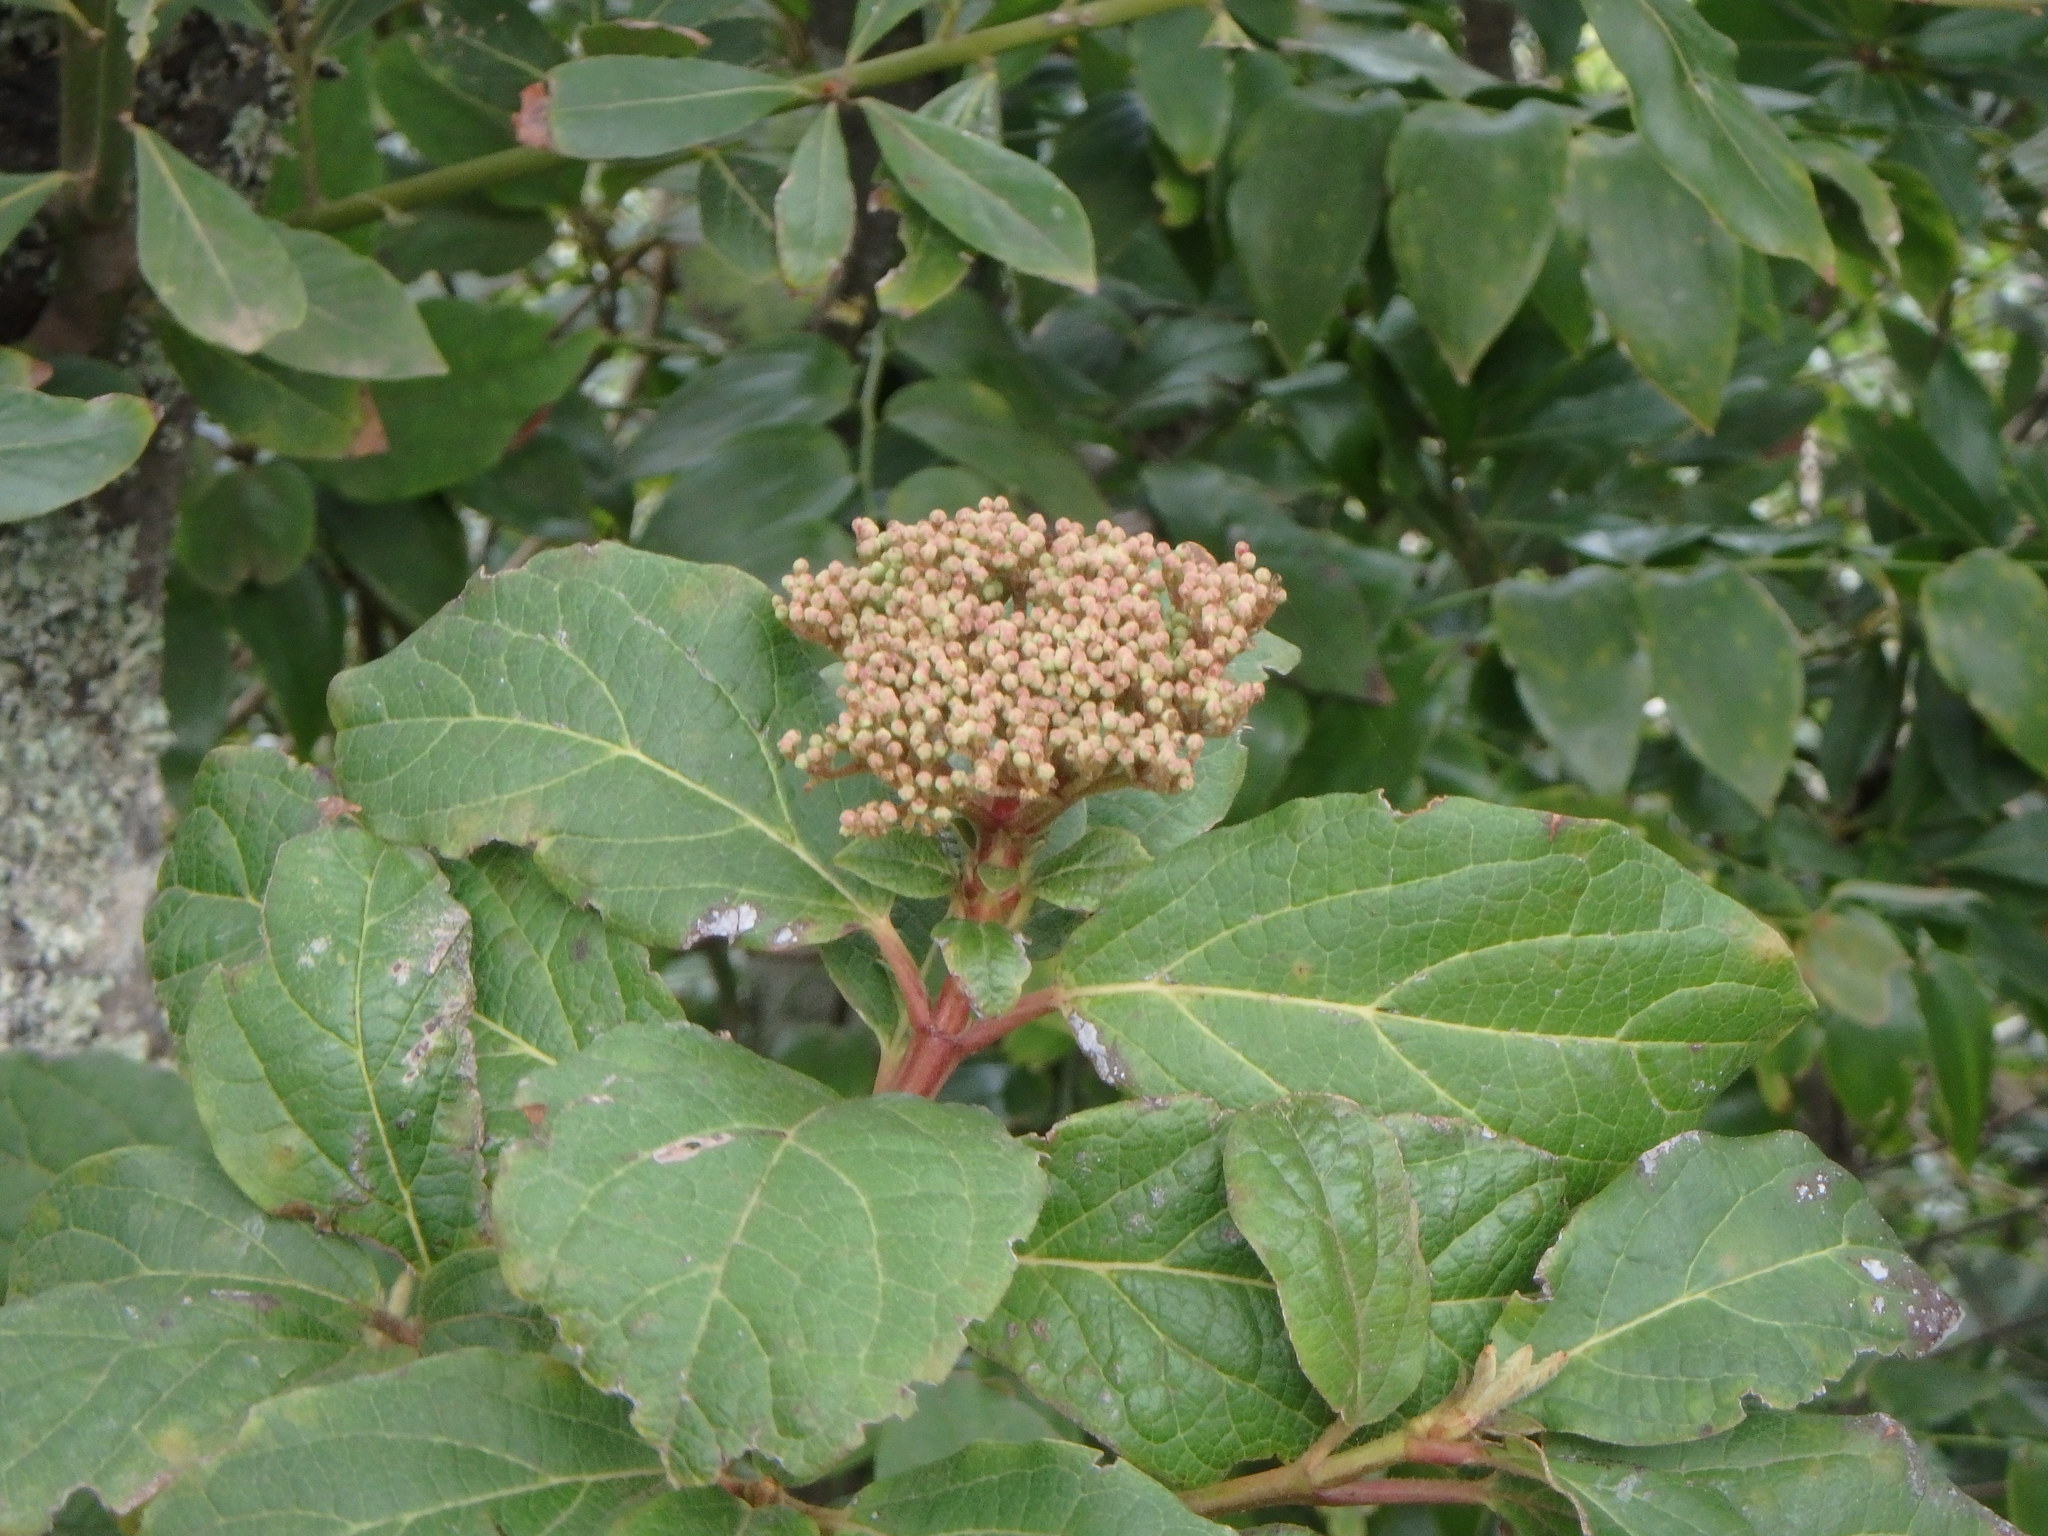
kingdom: Plantae
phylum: Tracheophyta
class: Magnoliopsida
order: Dipsacales
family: Viburnaceae
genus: Viburnum
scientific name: Viburnum rugosum
